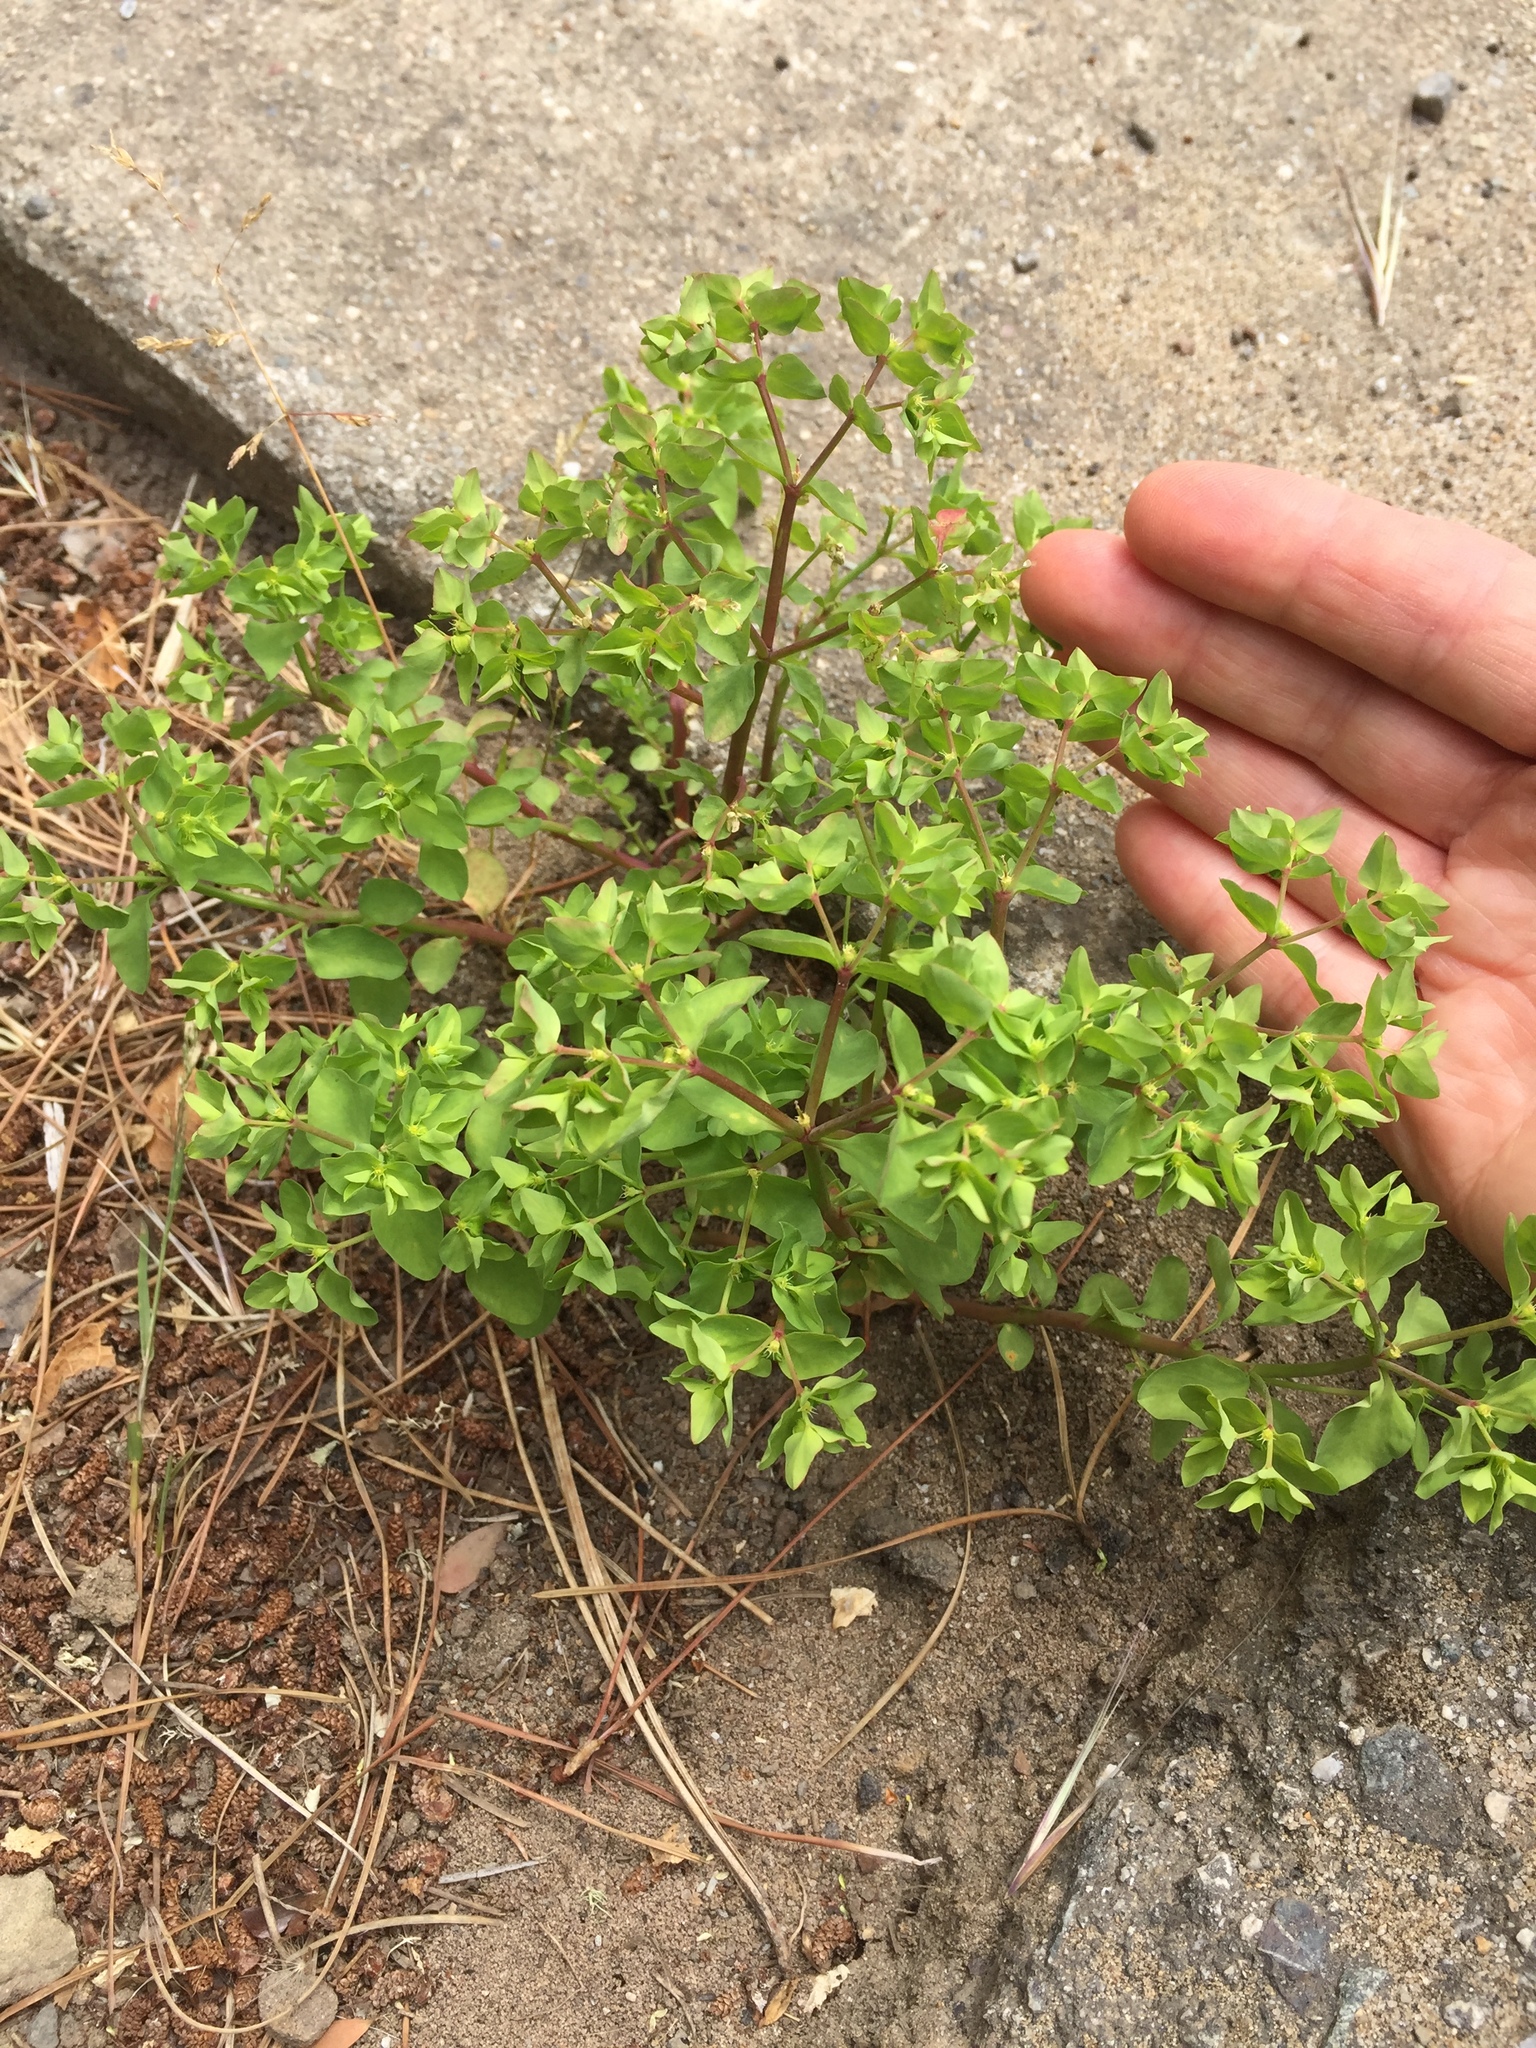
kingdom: Plantae
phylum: Tracheophyta
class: Magnoliopsida
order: Malpighiales
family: Euphorbiaceae
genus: Euphorbia
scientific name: Euphorbia peplus
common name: Petty spurge
